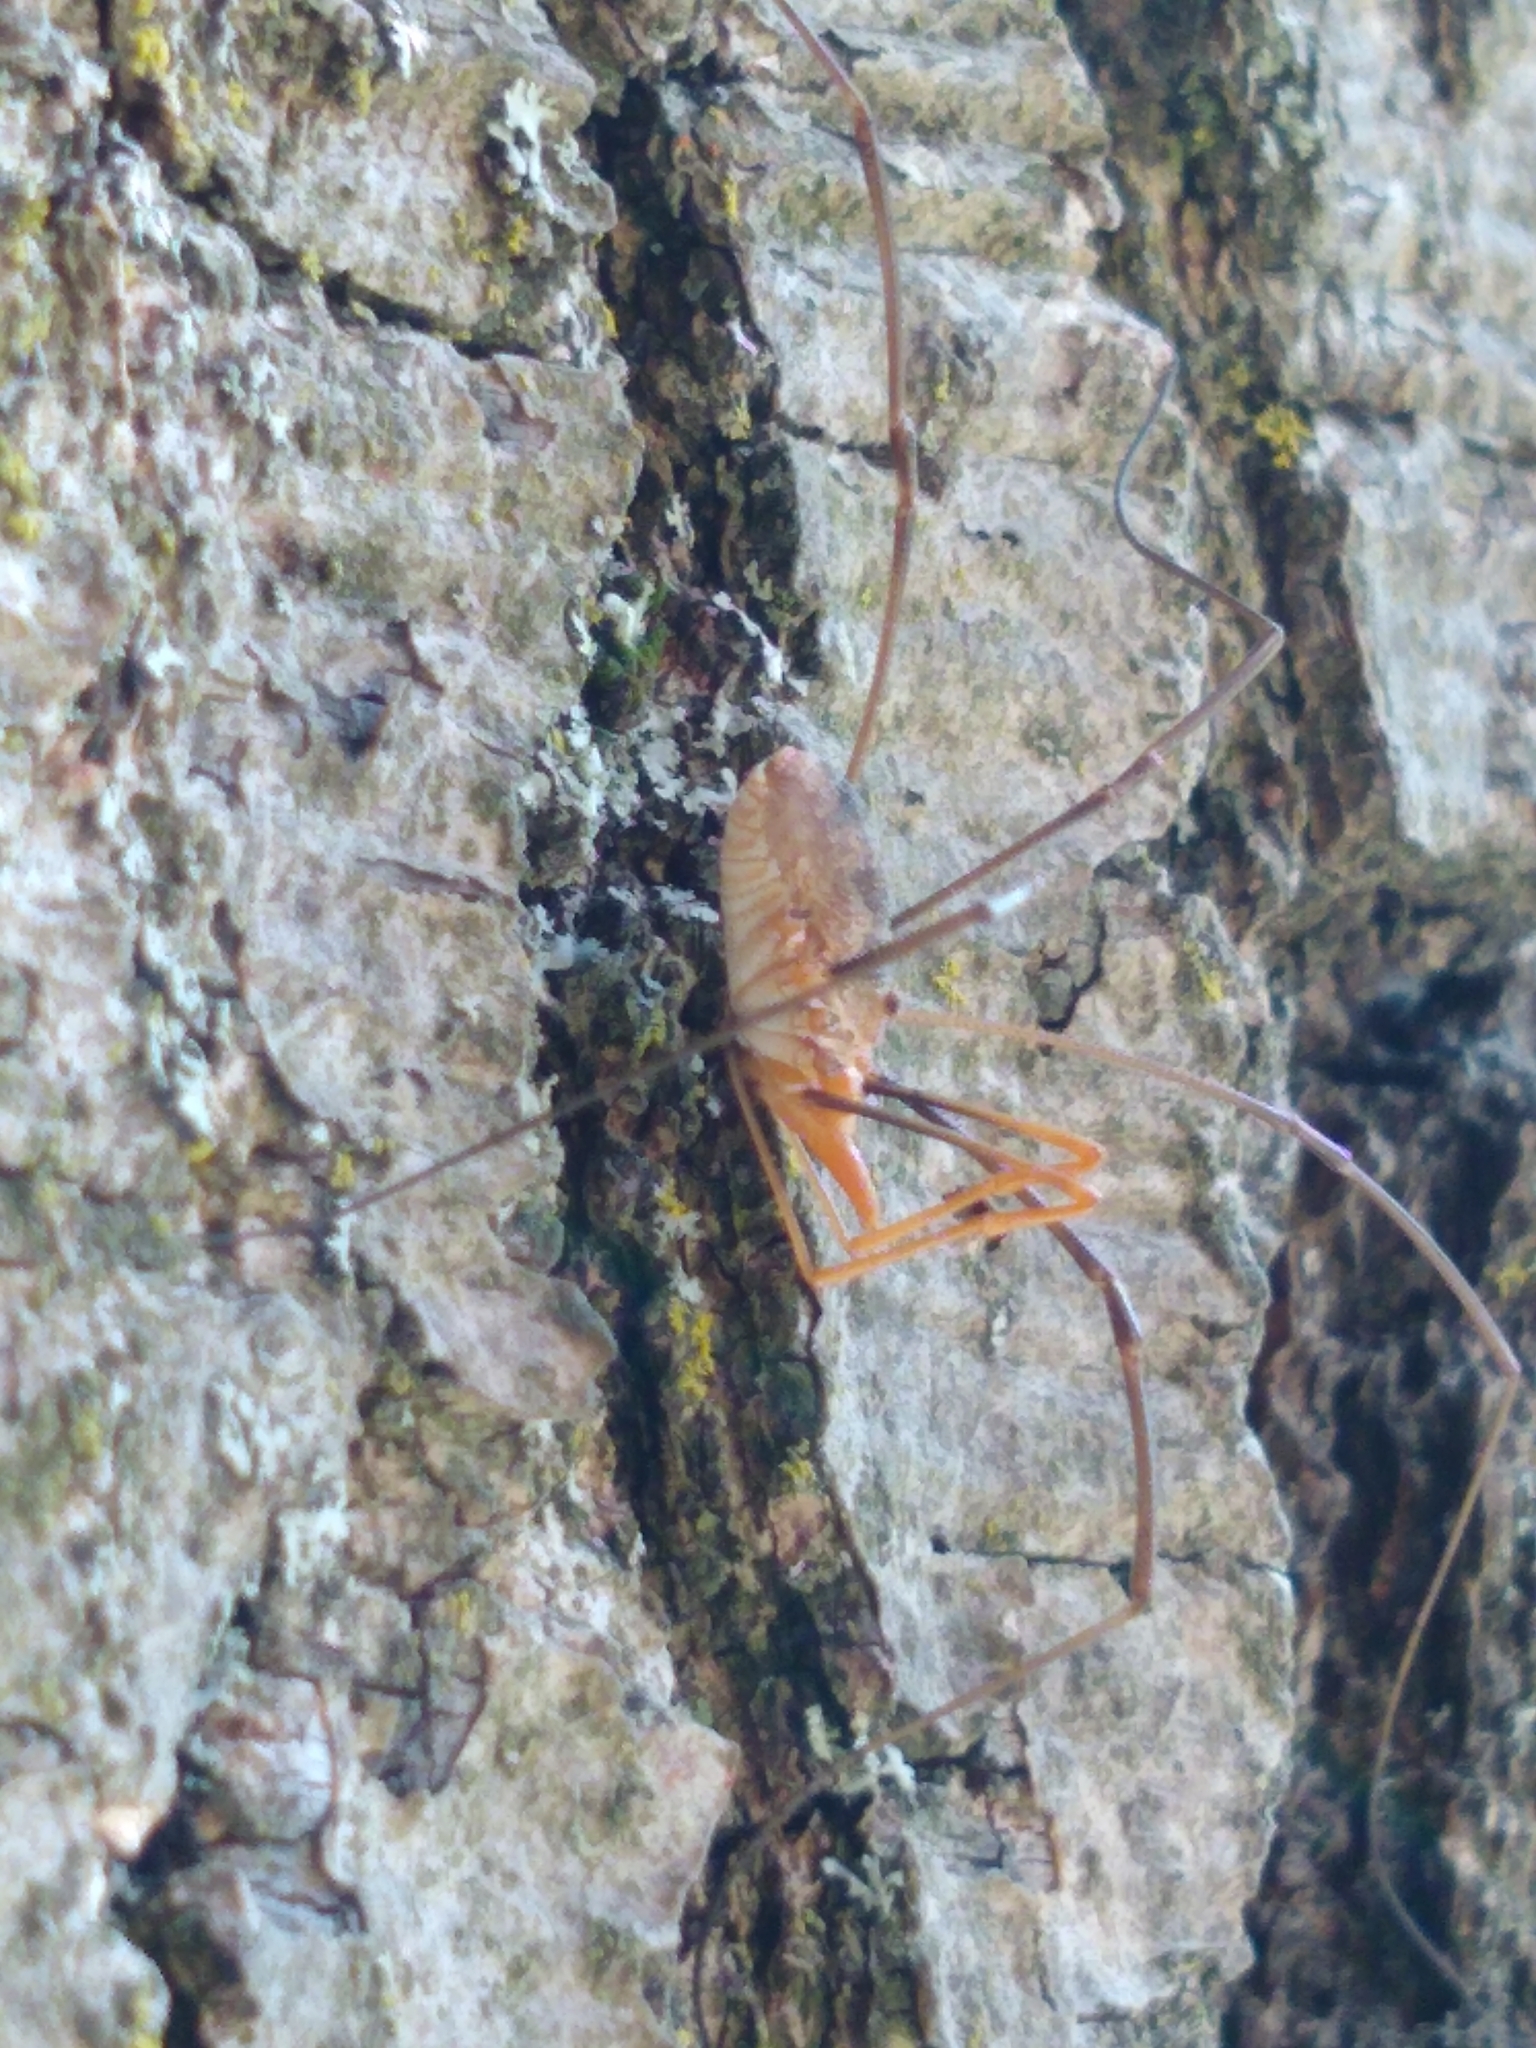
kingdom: Animalia
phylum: Arthropoda
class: Arachnida
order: Opiliones
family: Phalangiidae
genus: Phalangium
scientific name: Phalangium opilio
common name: Daddy longleg
